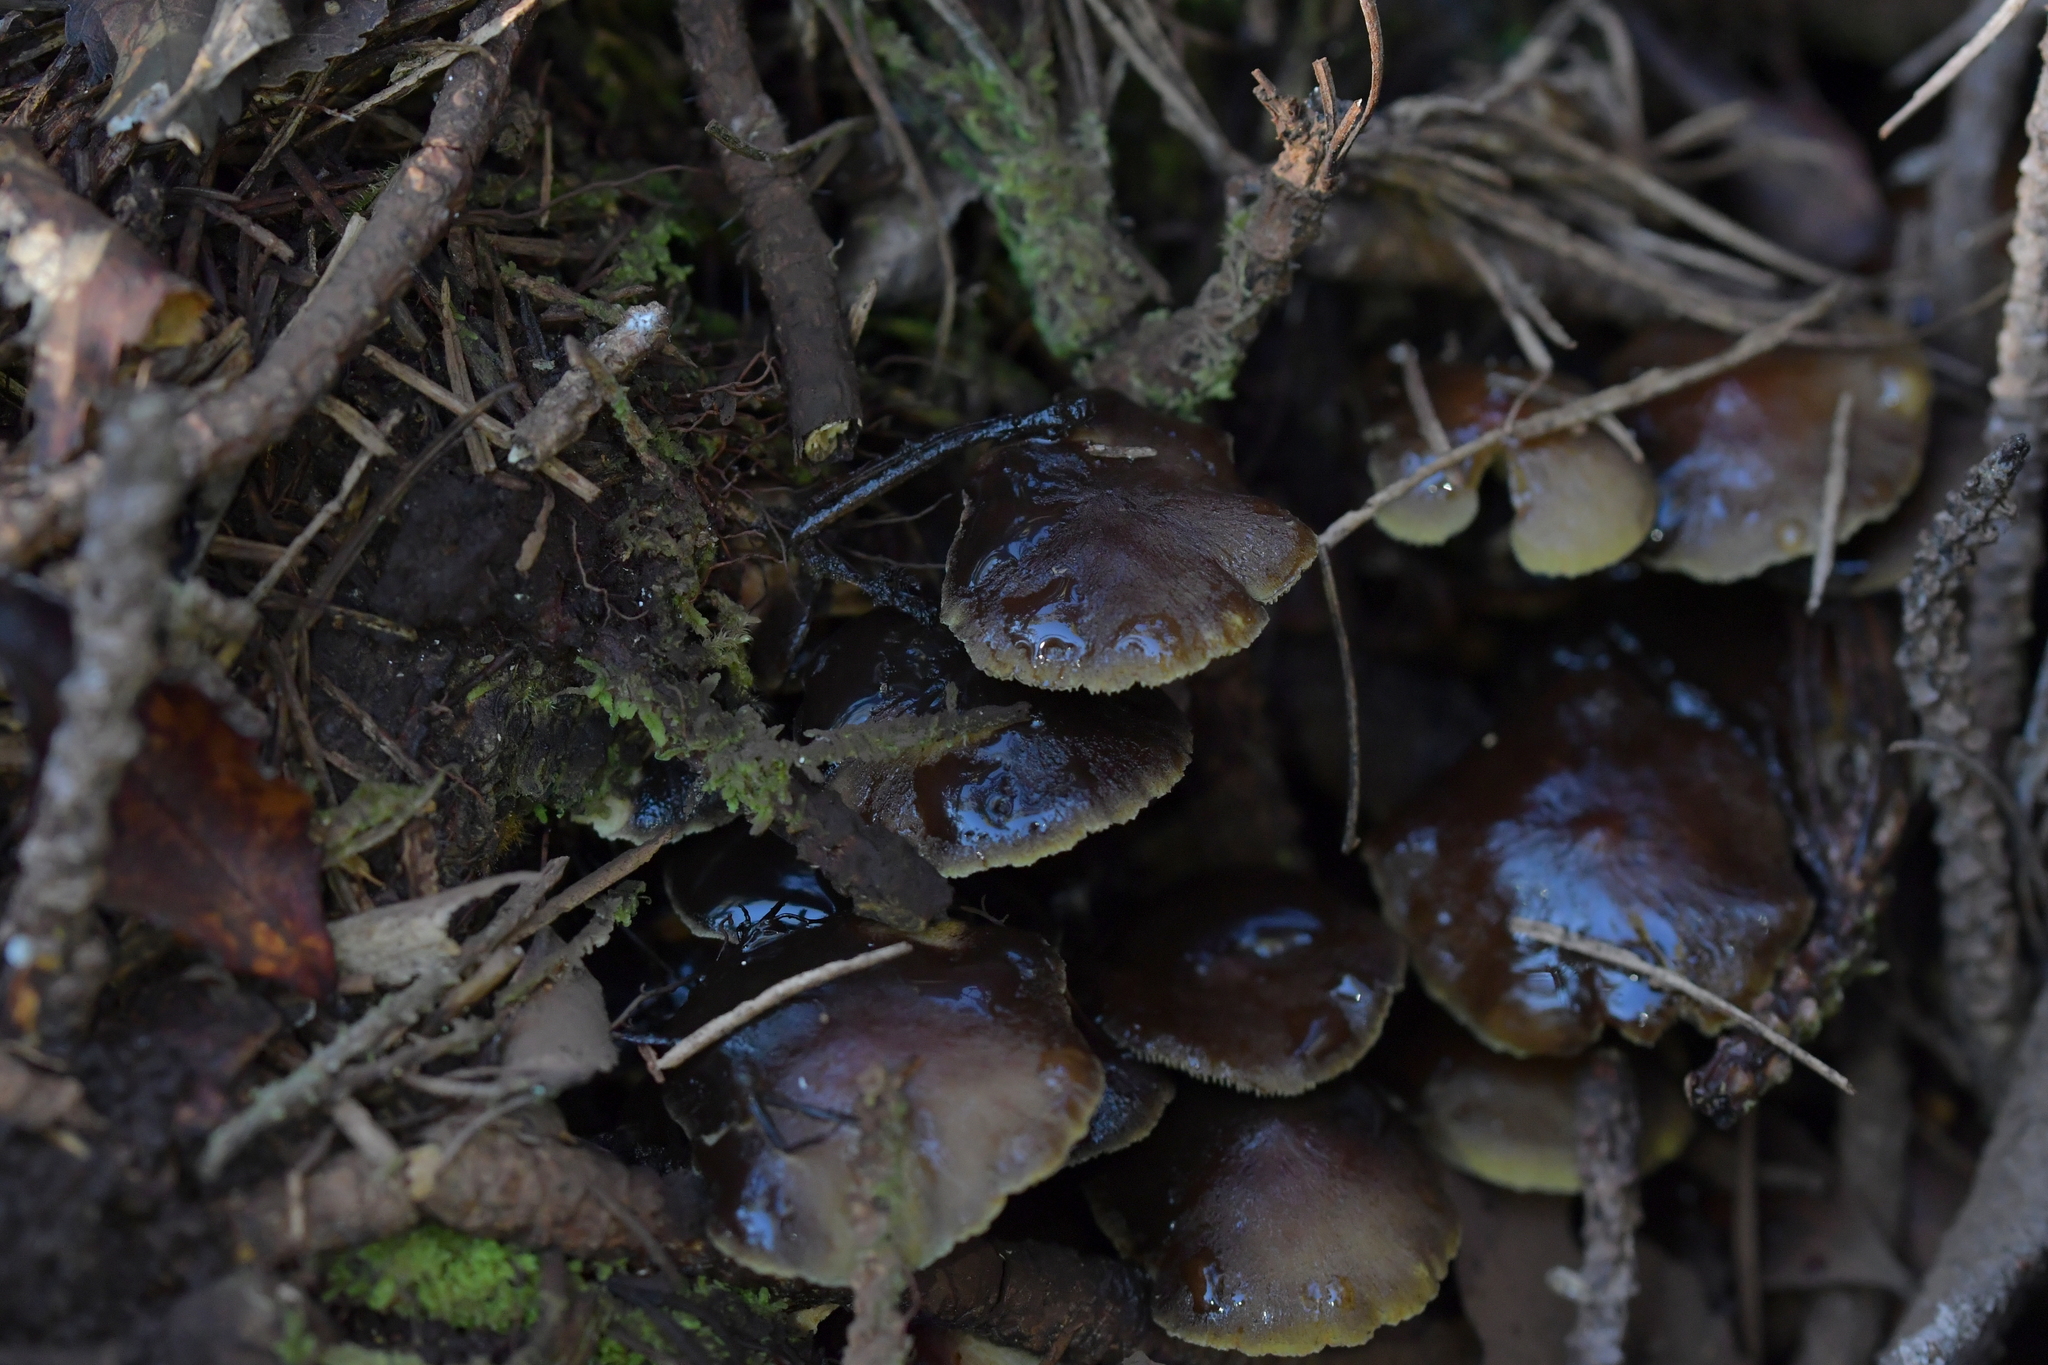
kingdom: Fungi
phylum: Basidiomycota
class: Agaricomycetes
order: Agaricales
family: Strophariaceae
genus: Hypholoma
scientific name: Hypholoma acutum
